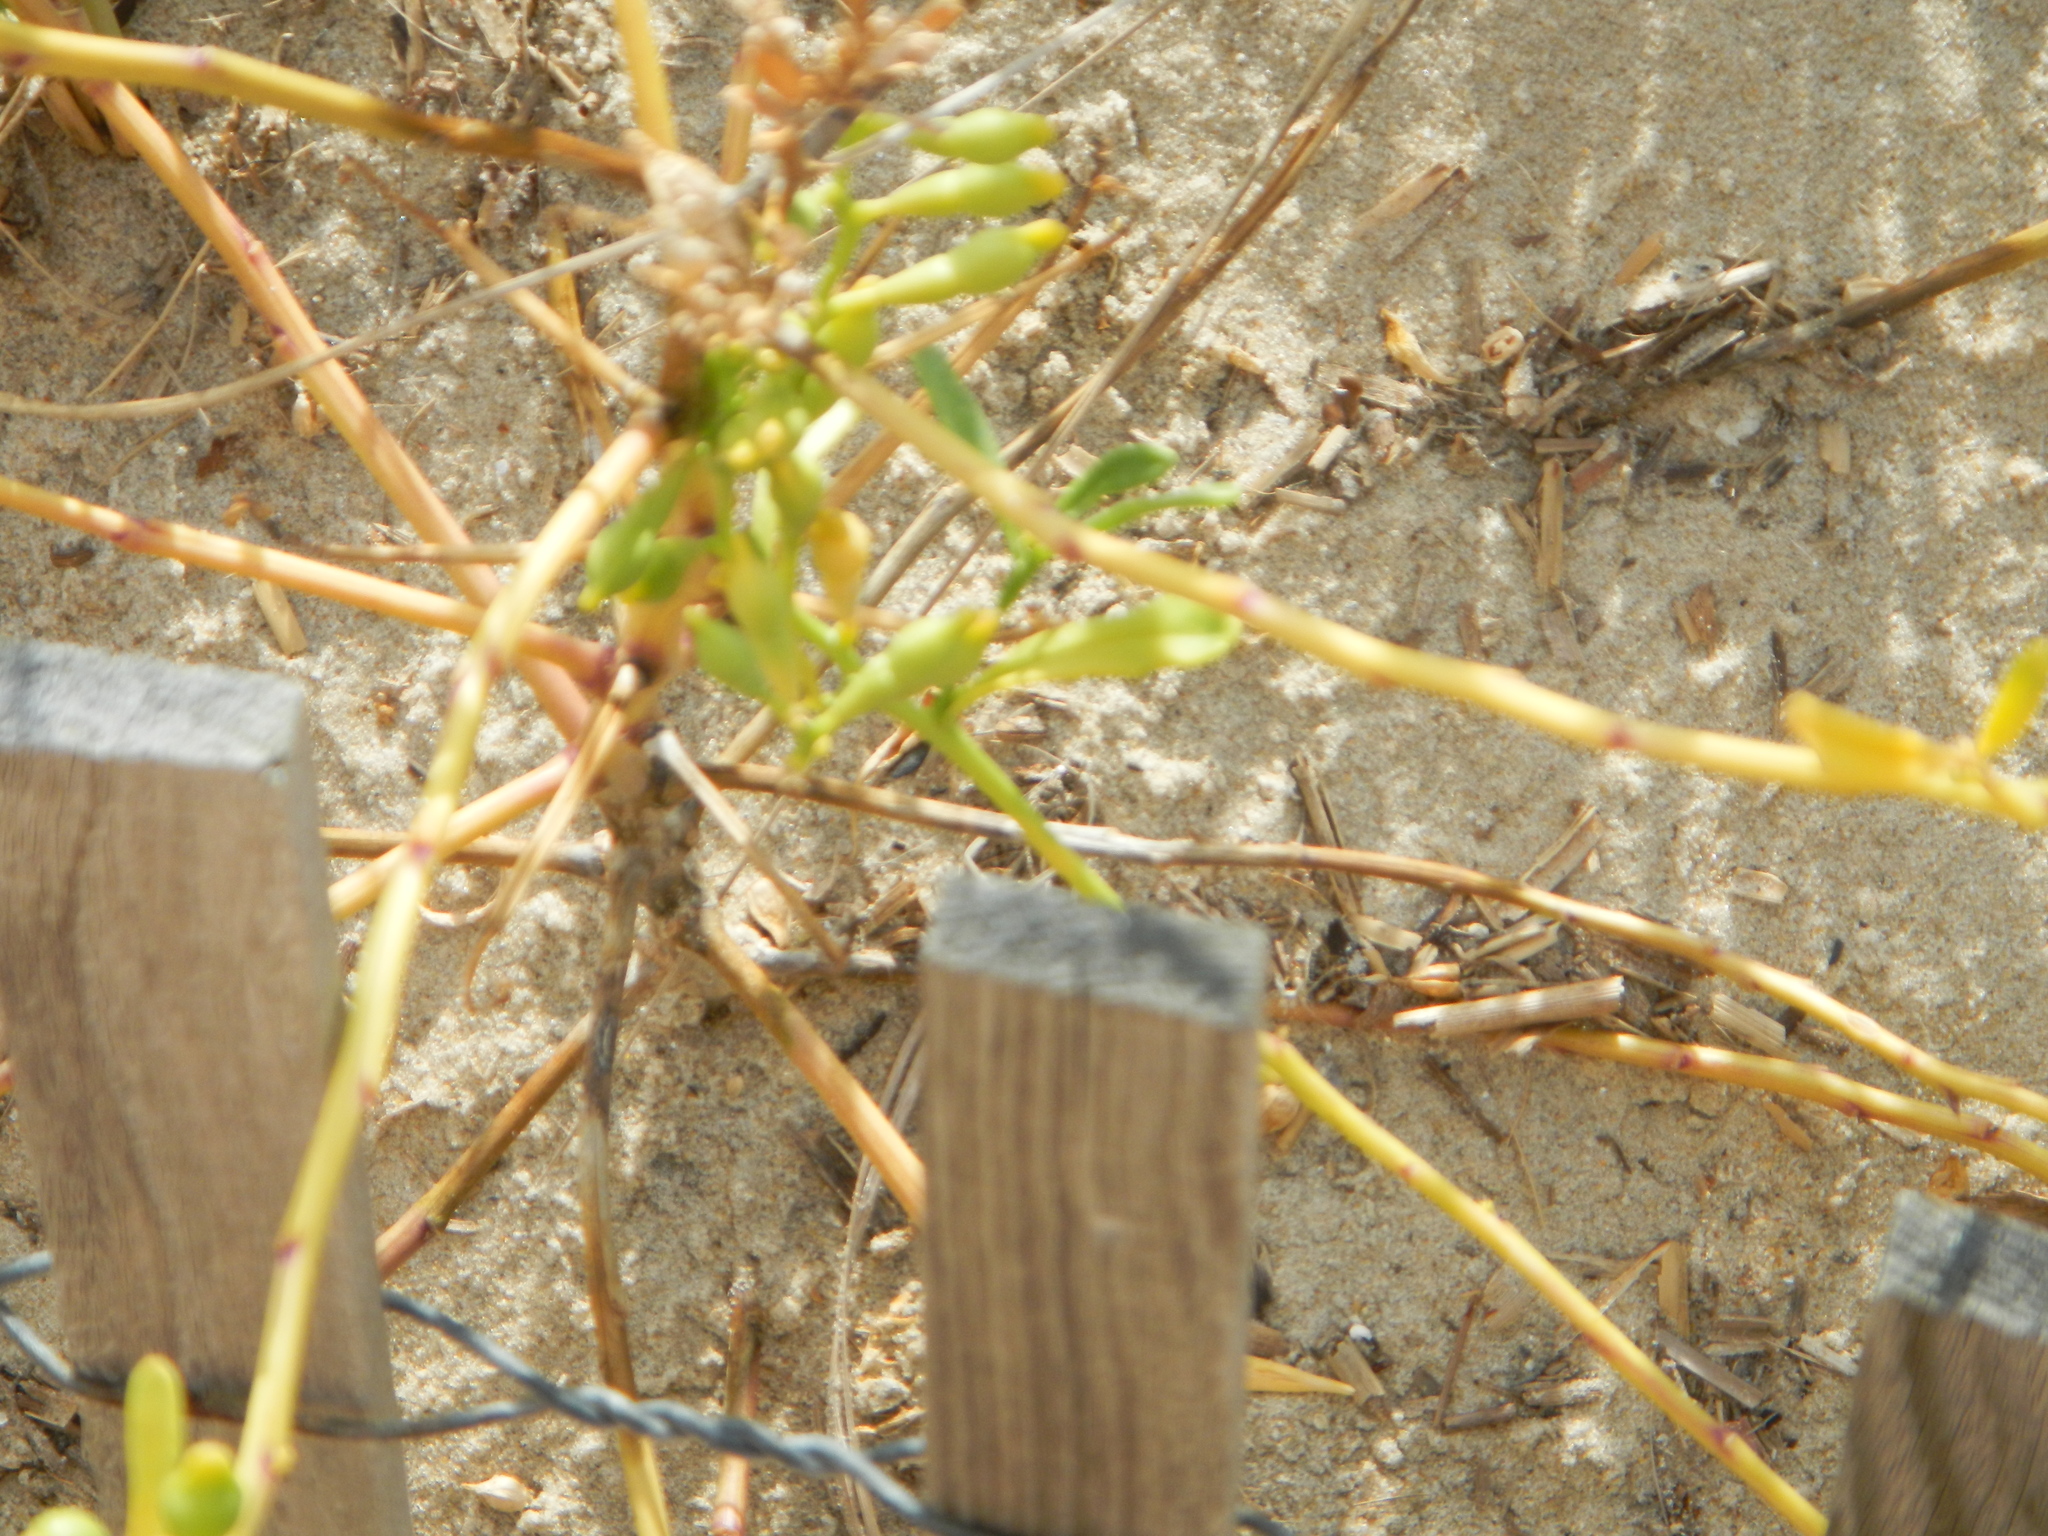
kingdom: Plantae
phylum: Tracheophyta
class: Magnoliopsida
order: Brassicales
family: Brassicaceae
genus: Cakile
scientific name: Cakile edentula
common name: American sea rocket
